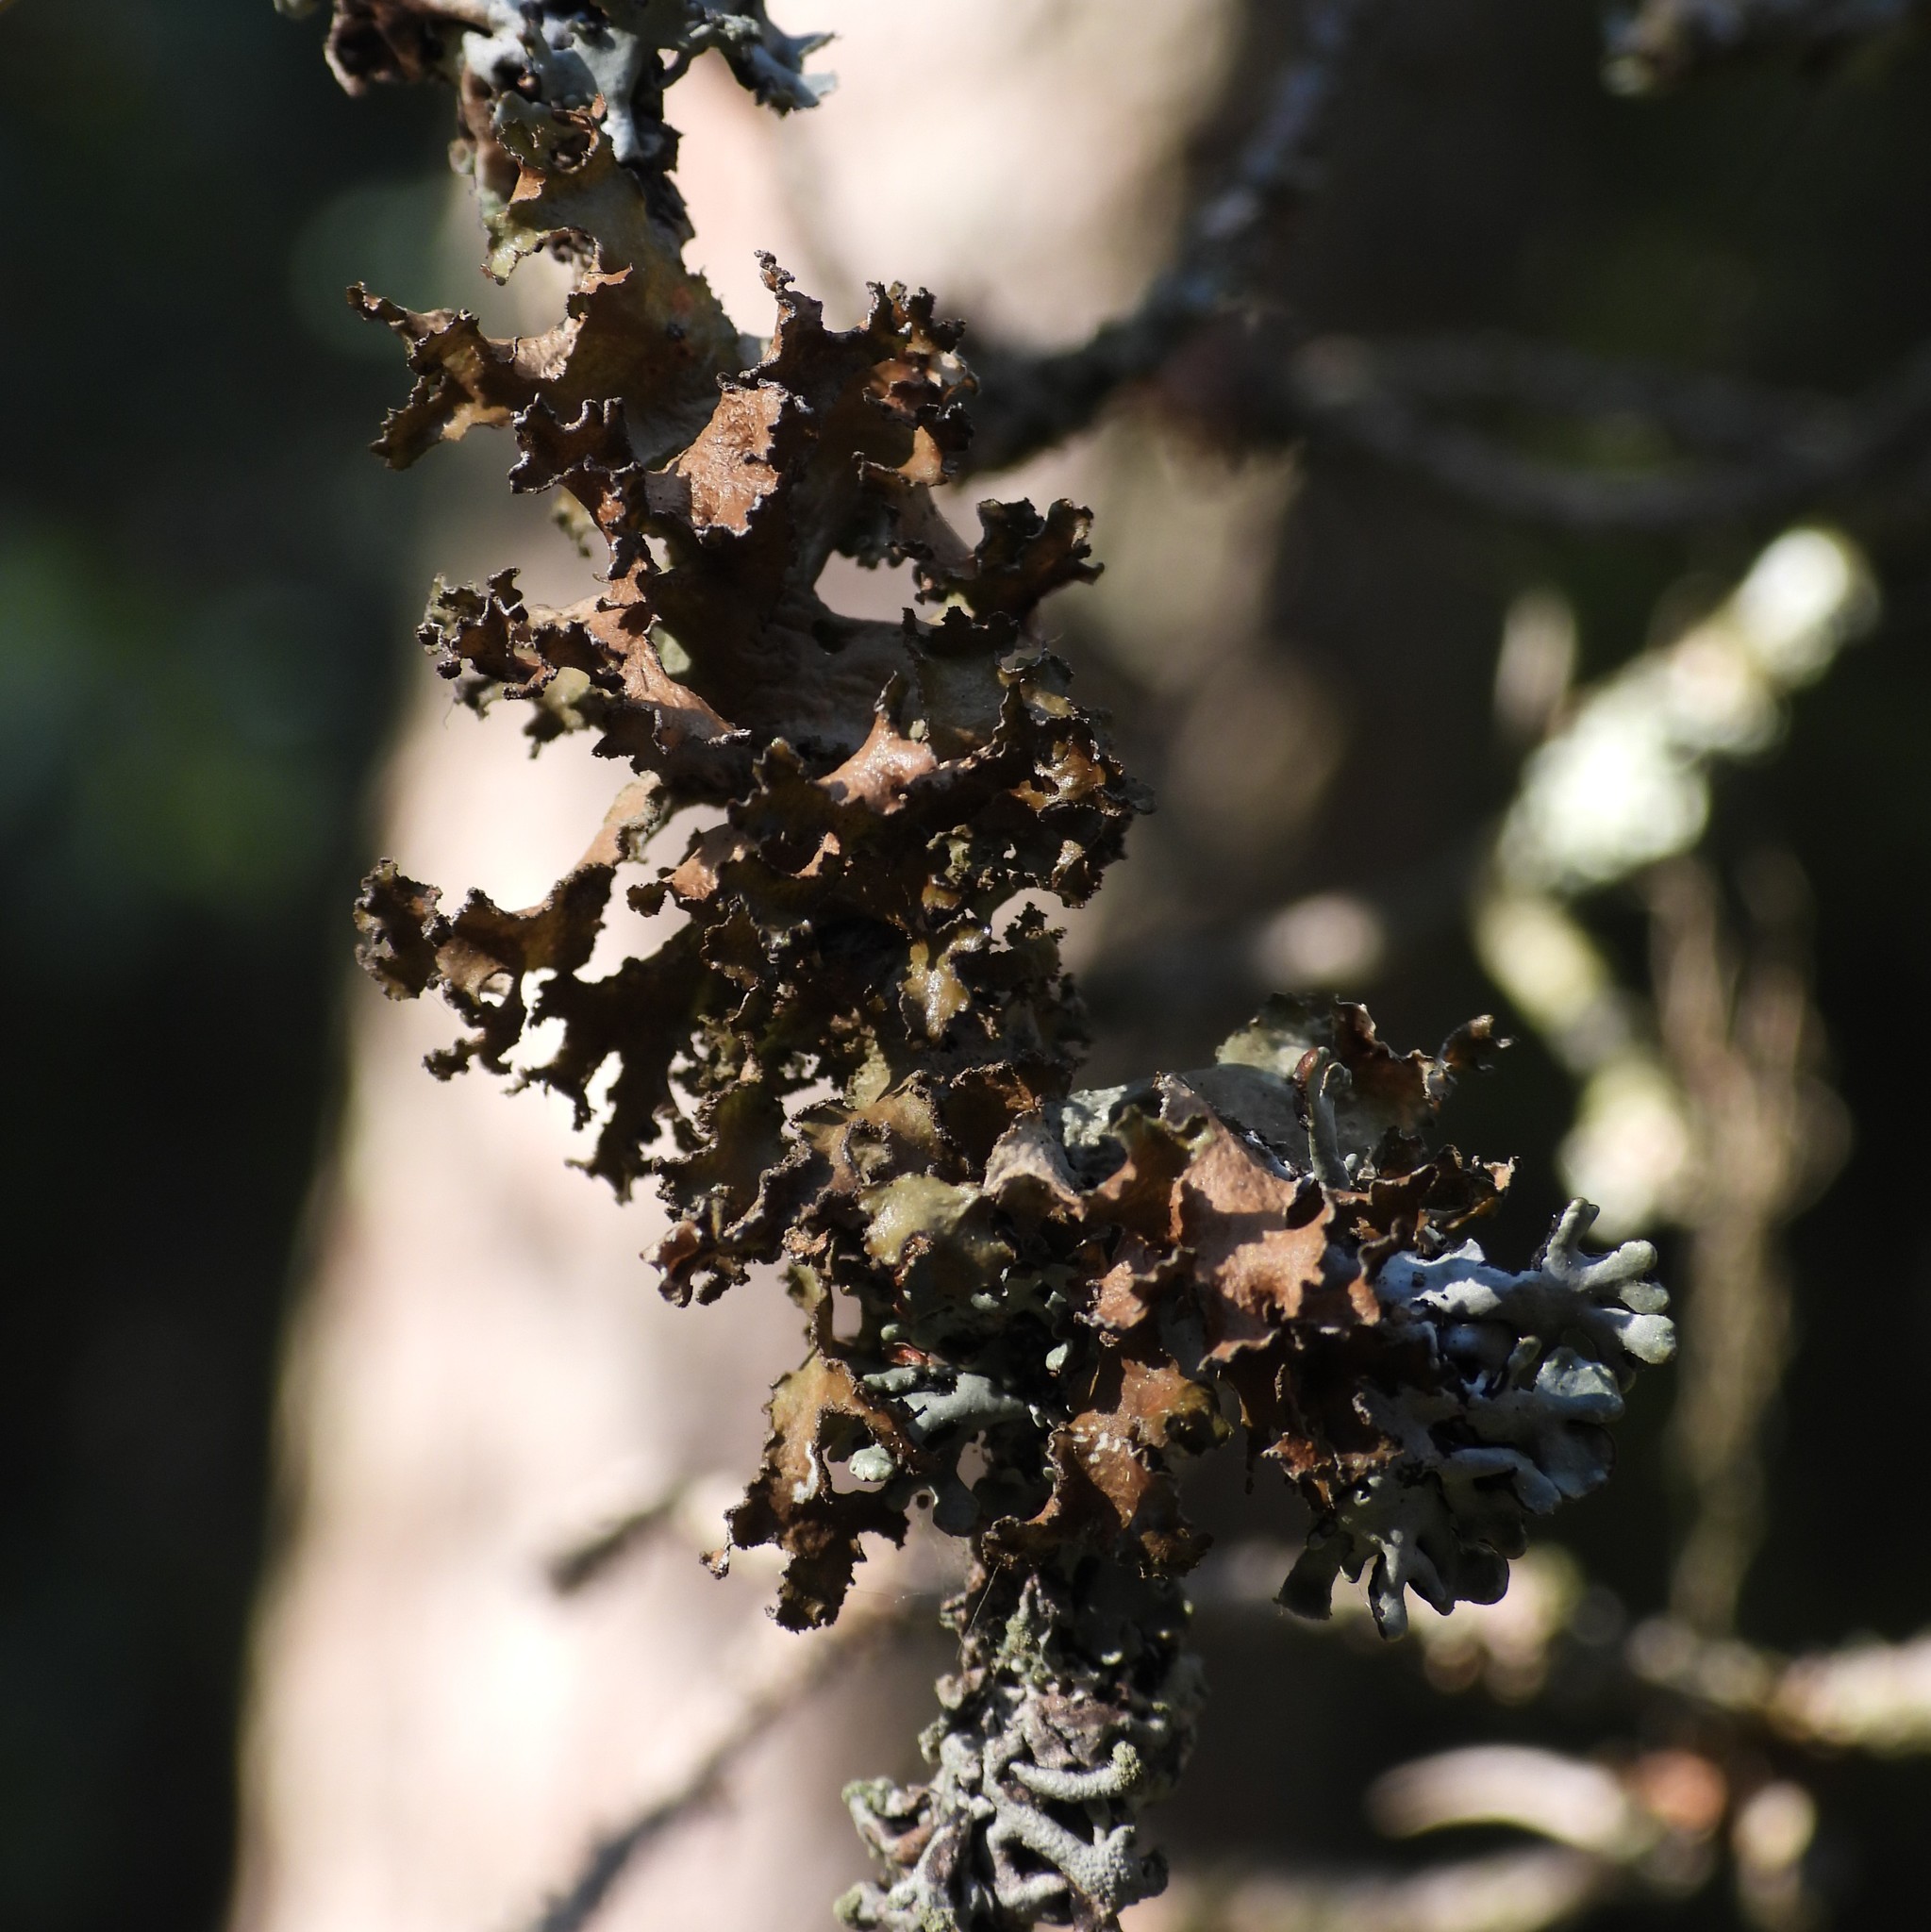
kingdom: Fungi
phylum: Ascomycota
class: Lecanoromycetes
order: Lecanorales
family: Parmeliaceae
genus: Nephromopsis
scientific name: Nephromopsis chlorophylla
